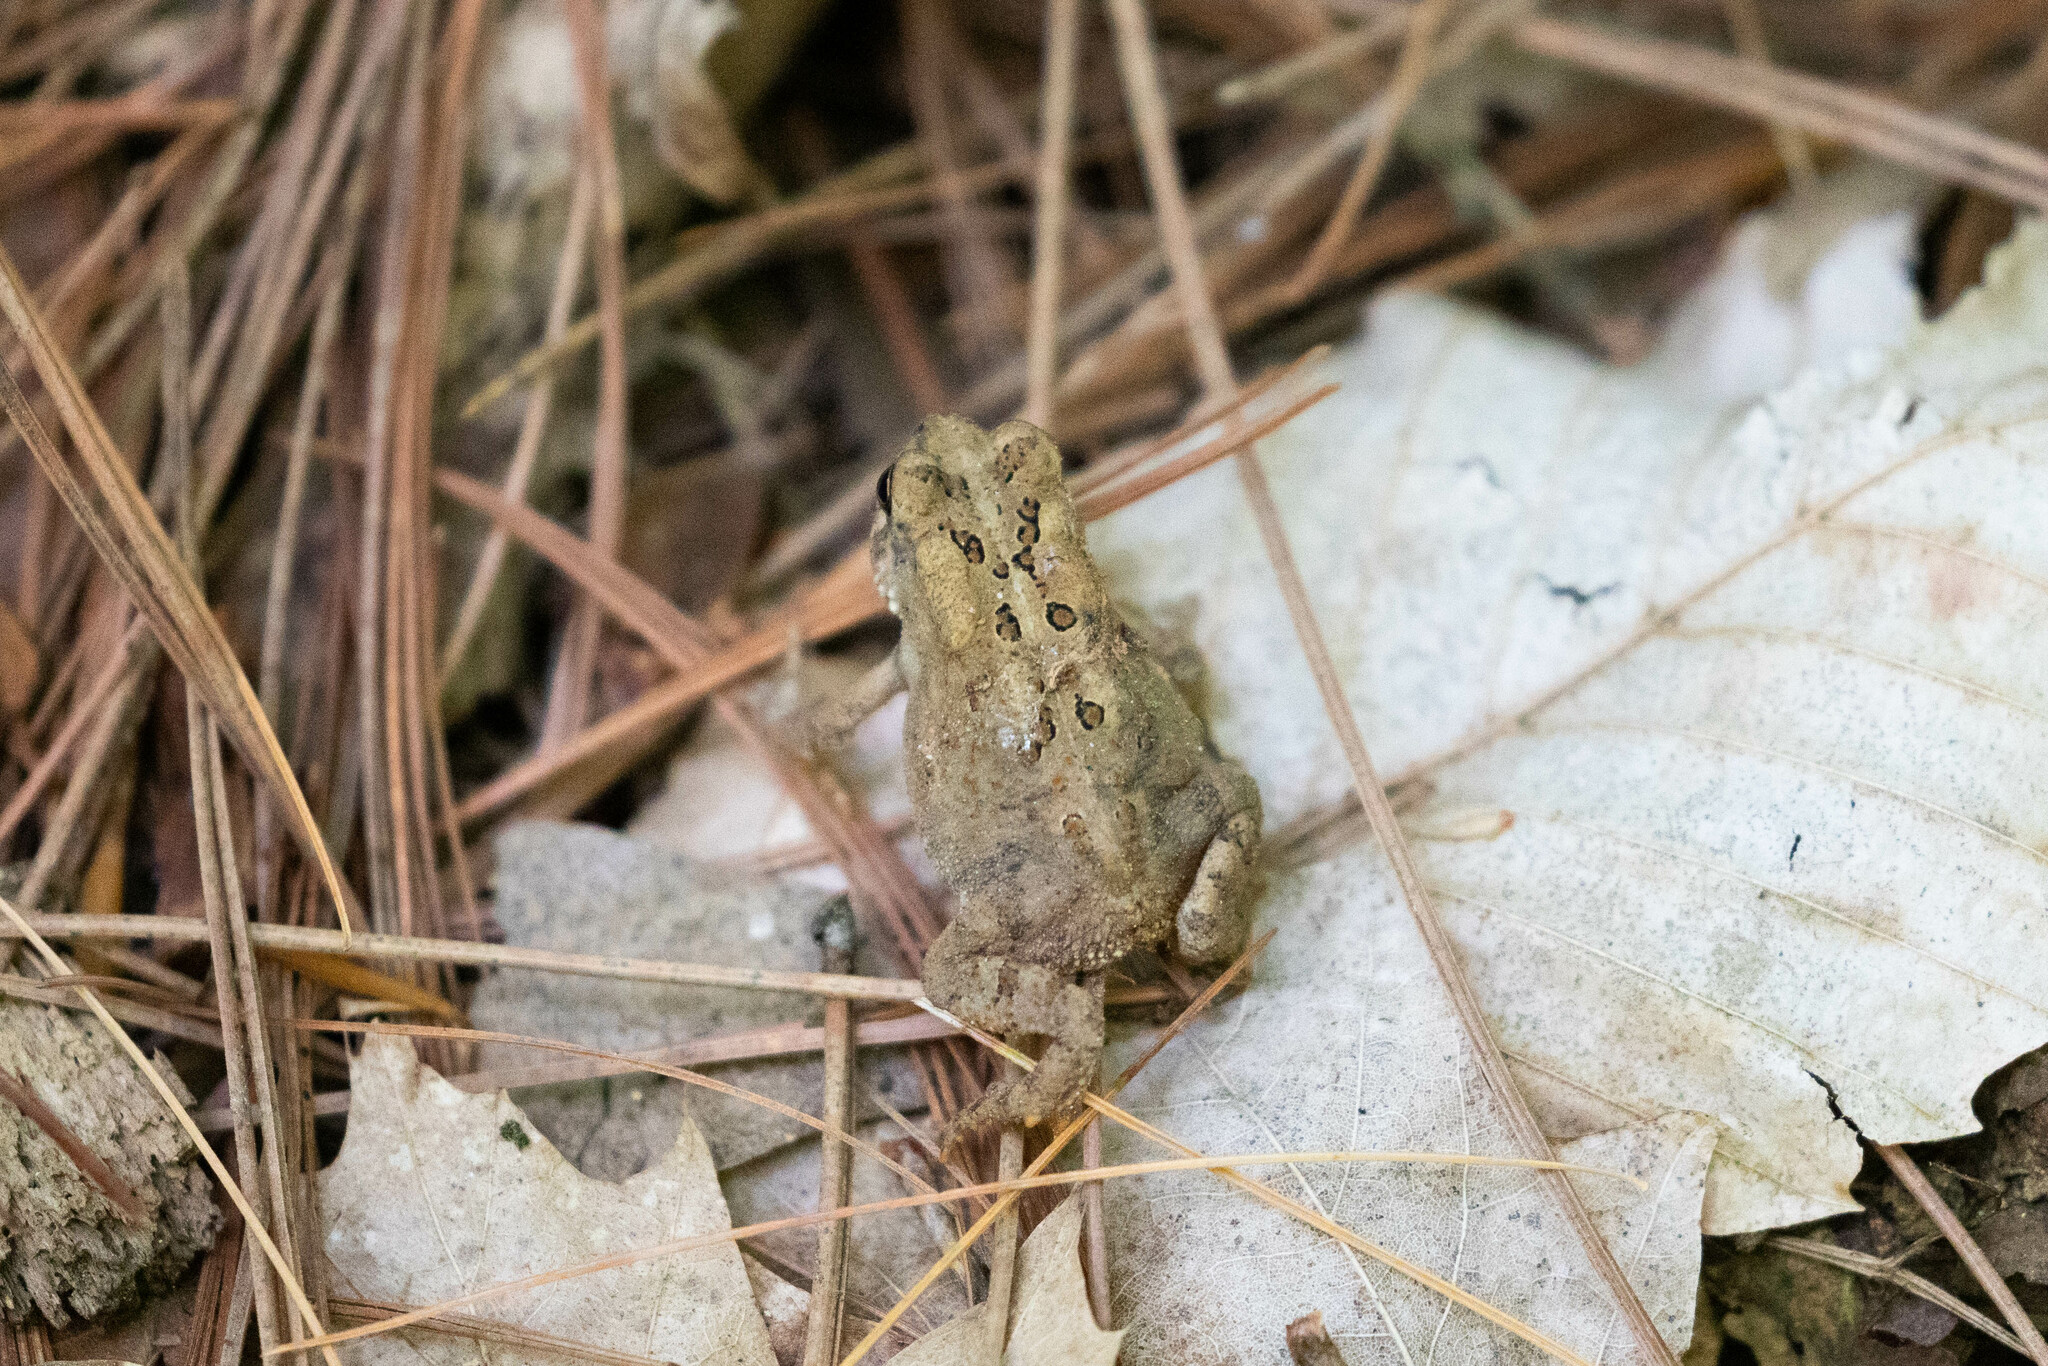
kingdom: Animalia
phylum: Chordata
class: Amphibia
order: Anura
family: Bufonidae
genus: Anaxyrus
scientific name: Anaxyrus americanus
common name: American toad
